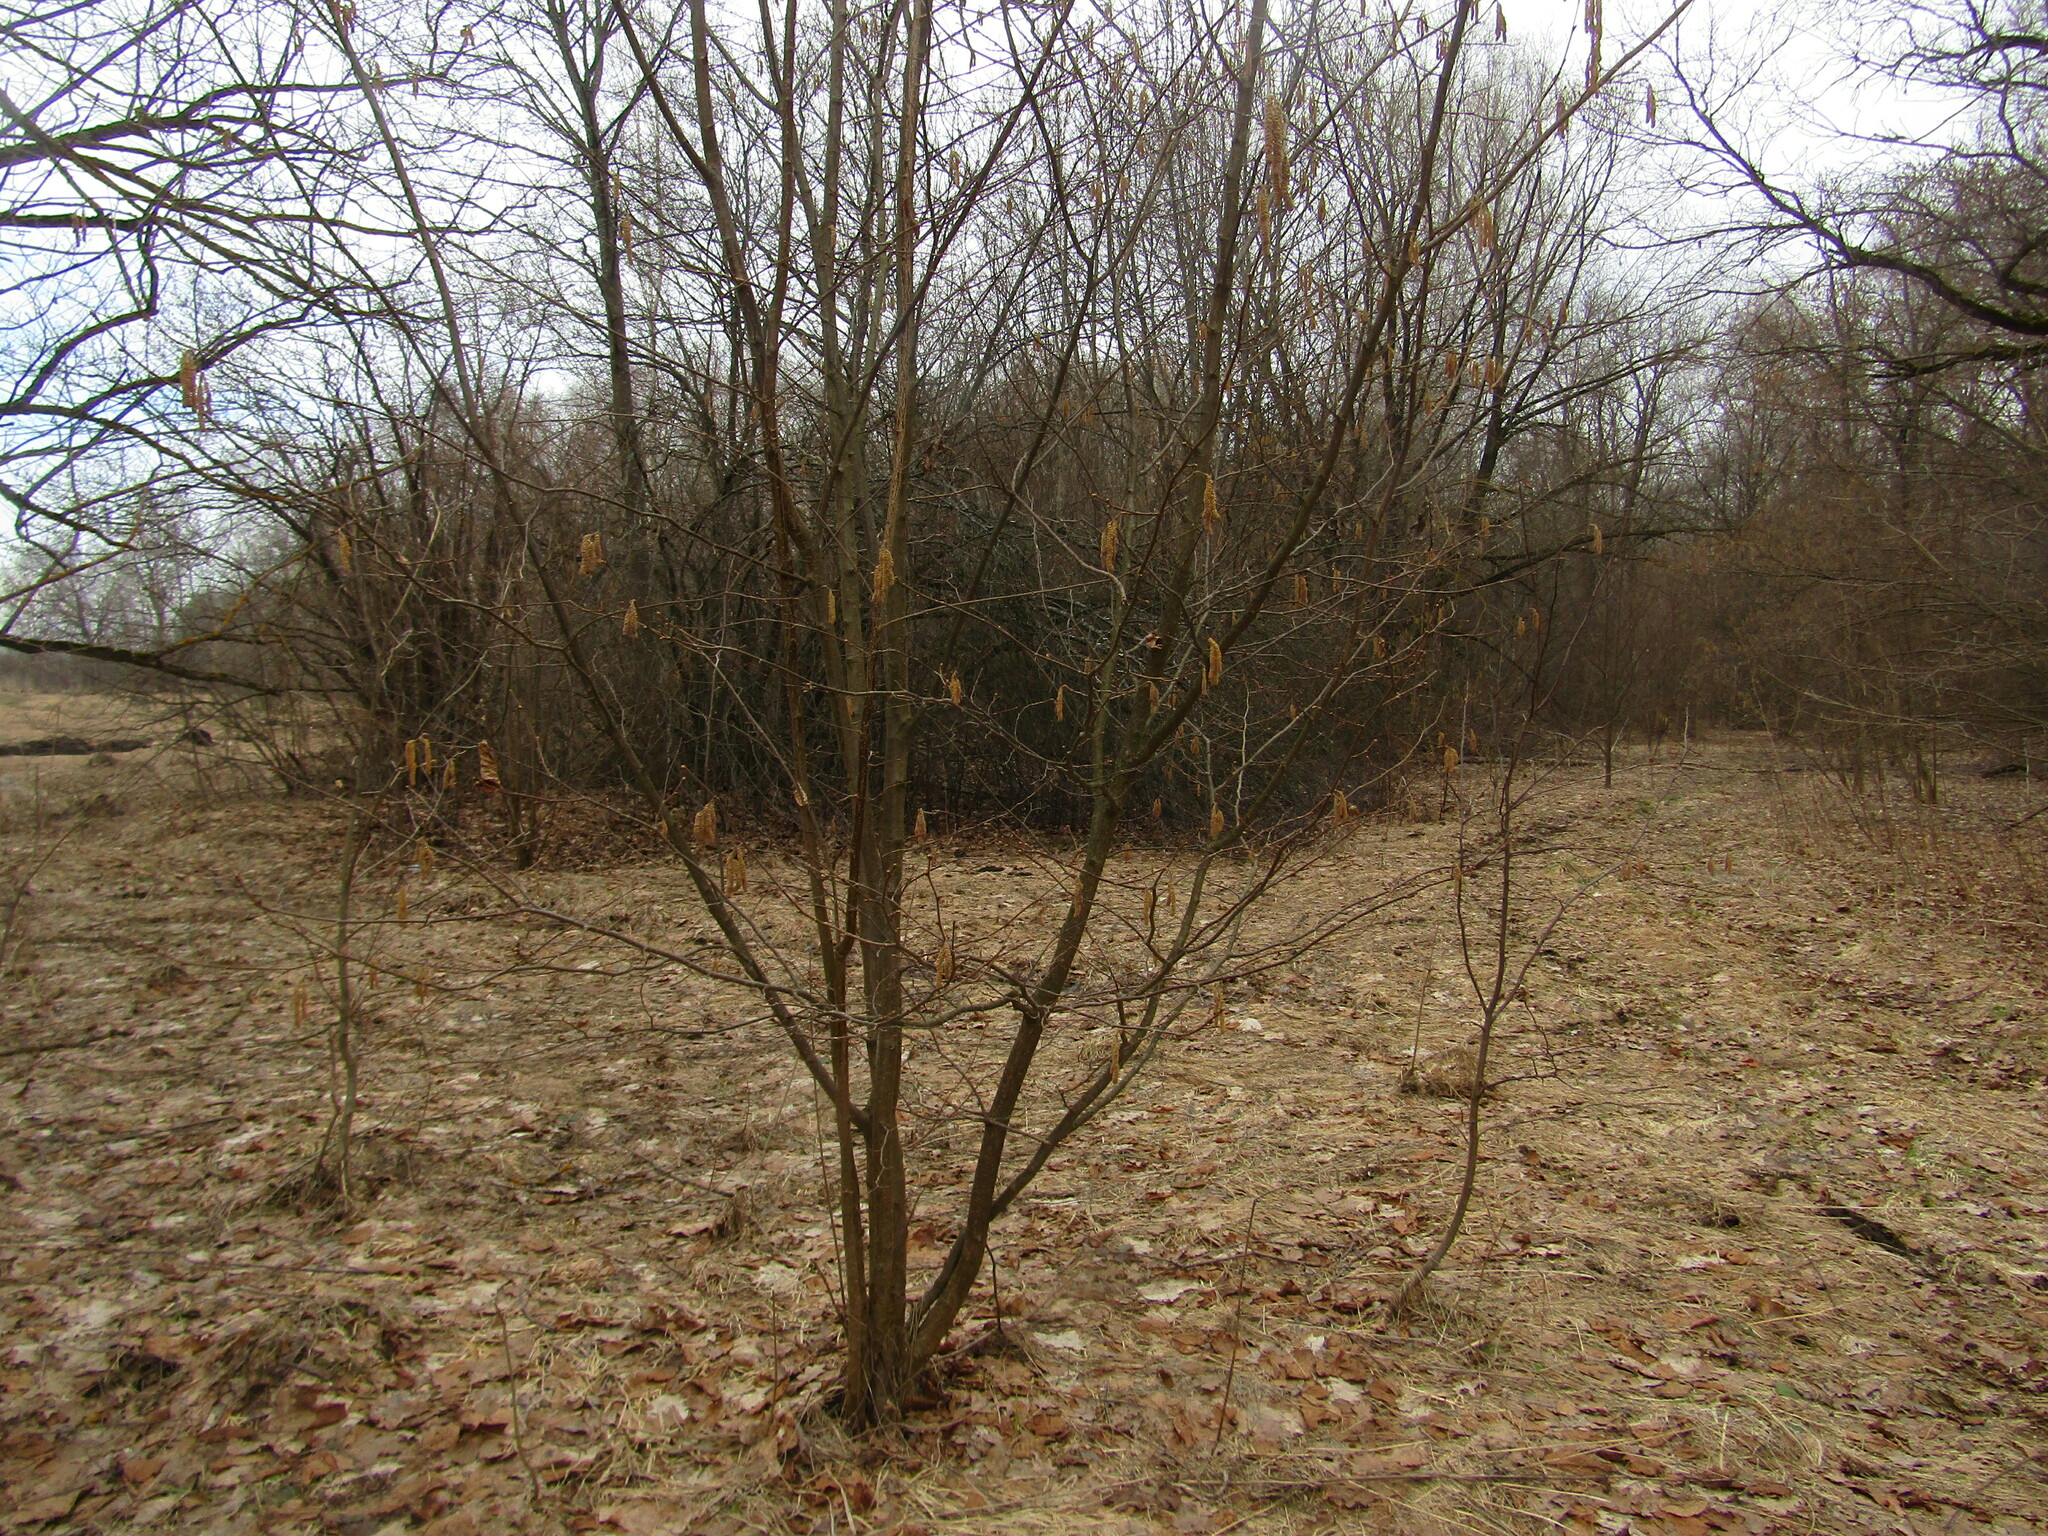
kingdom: Plantae
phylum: Tracheophyta
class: Magnoliopsida
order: Fagales
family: Betulaceae
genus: Corylus
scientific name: Corylus avellana
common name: European hazel
